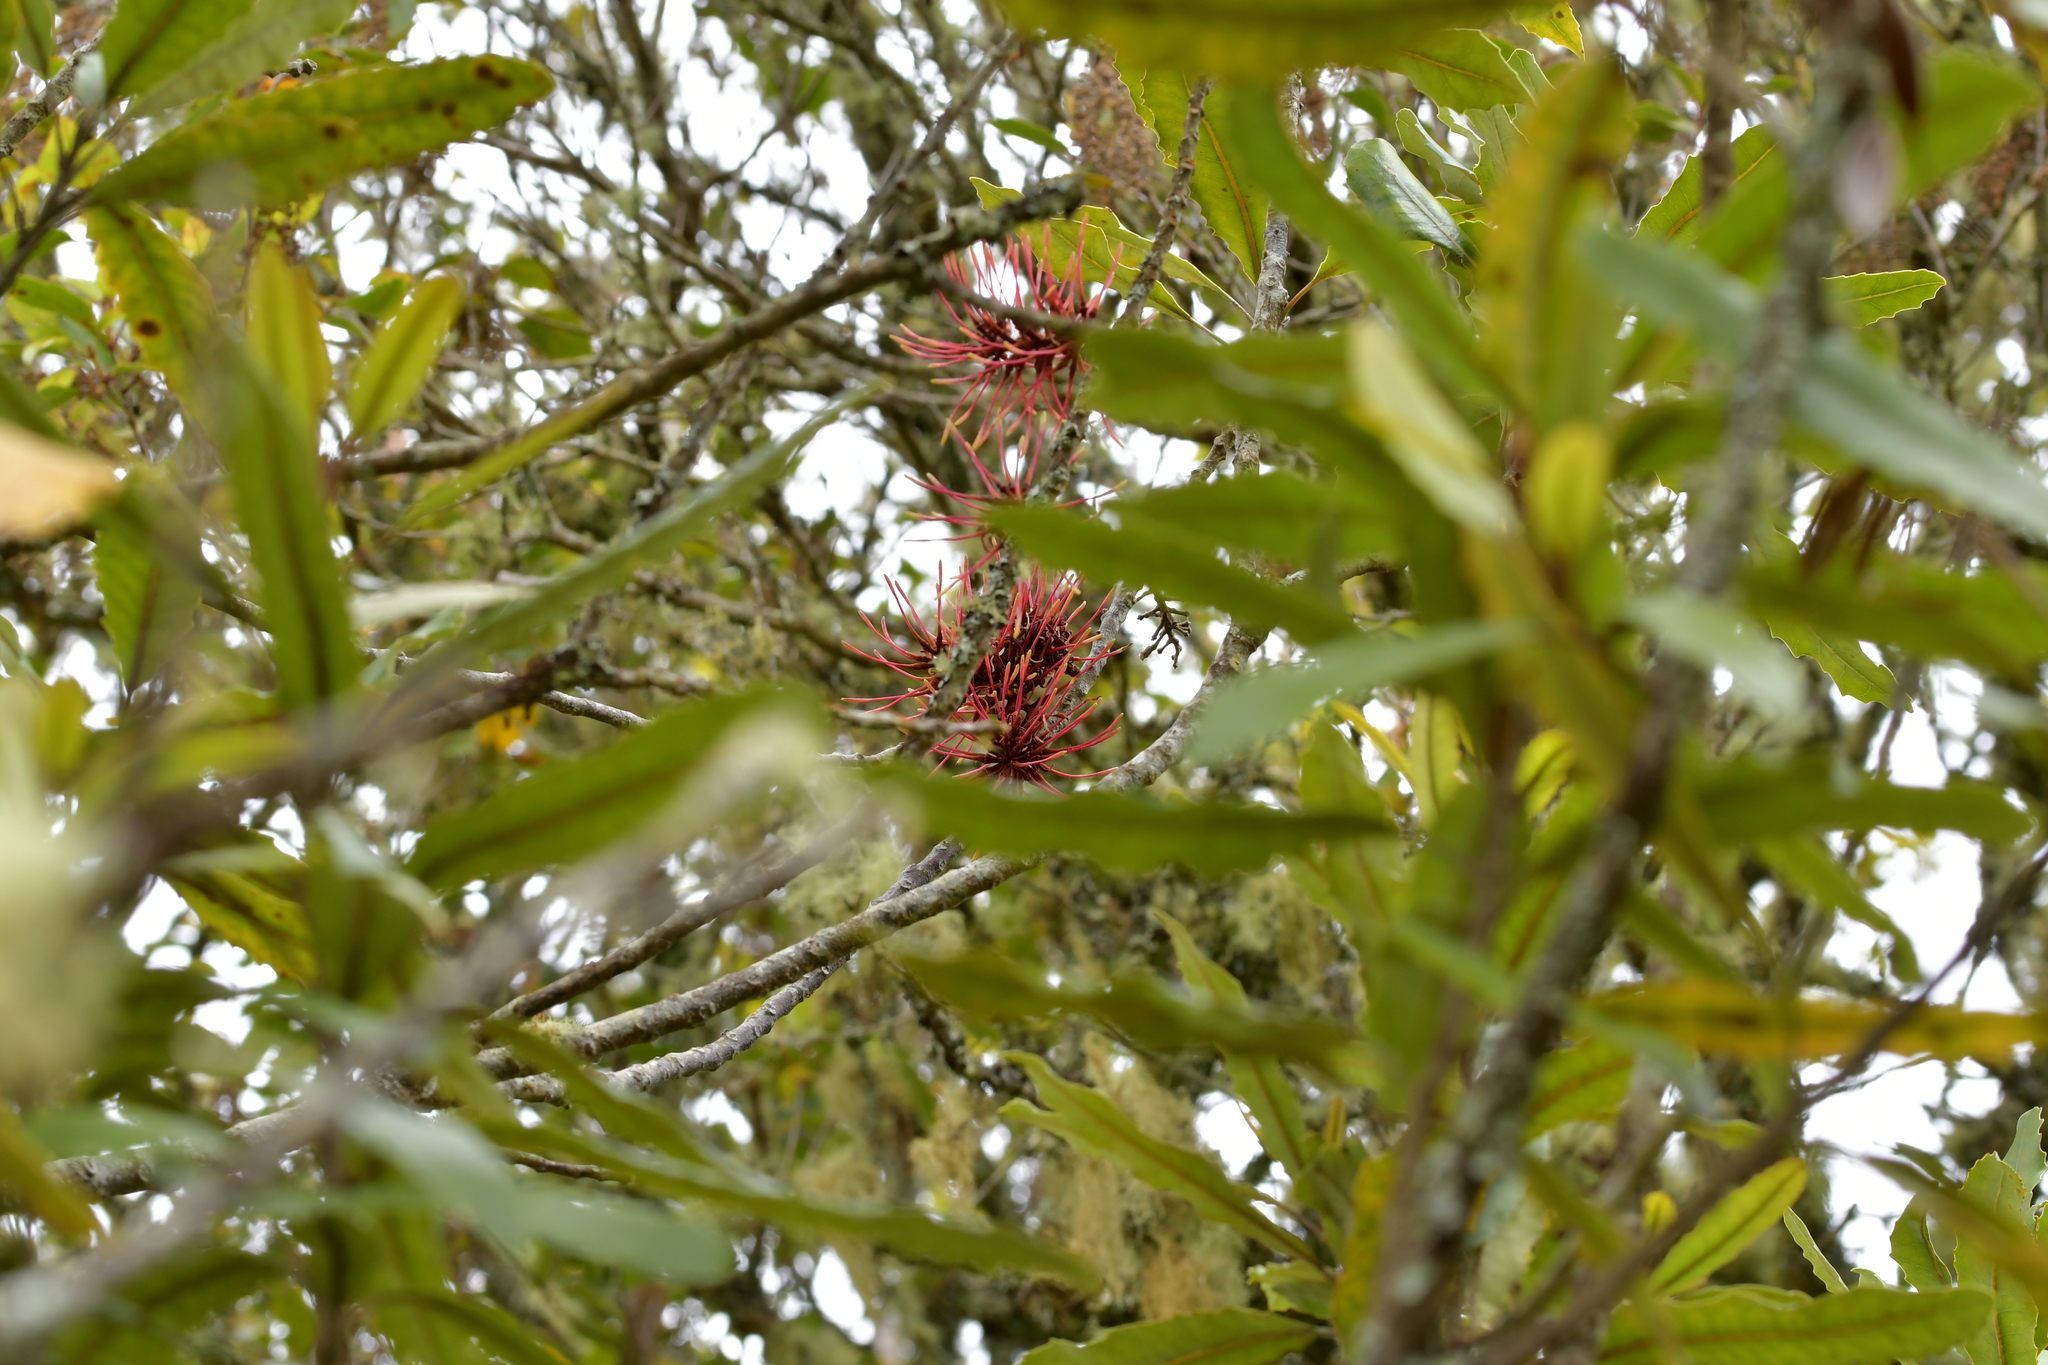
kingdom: Plantae
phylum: Tracheophyta
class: Magnoliopsida
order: Proteales
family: Proteaceae
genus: Knightia
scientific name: Knightia excelsa
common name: New zealand-honeysuckle
